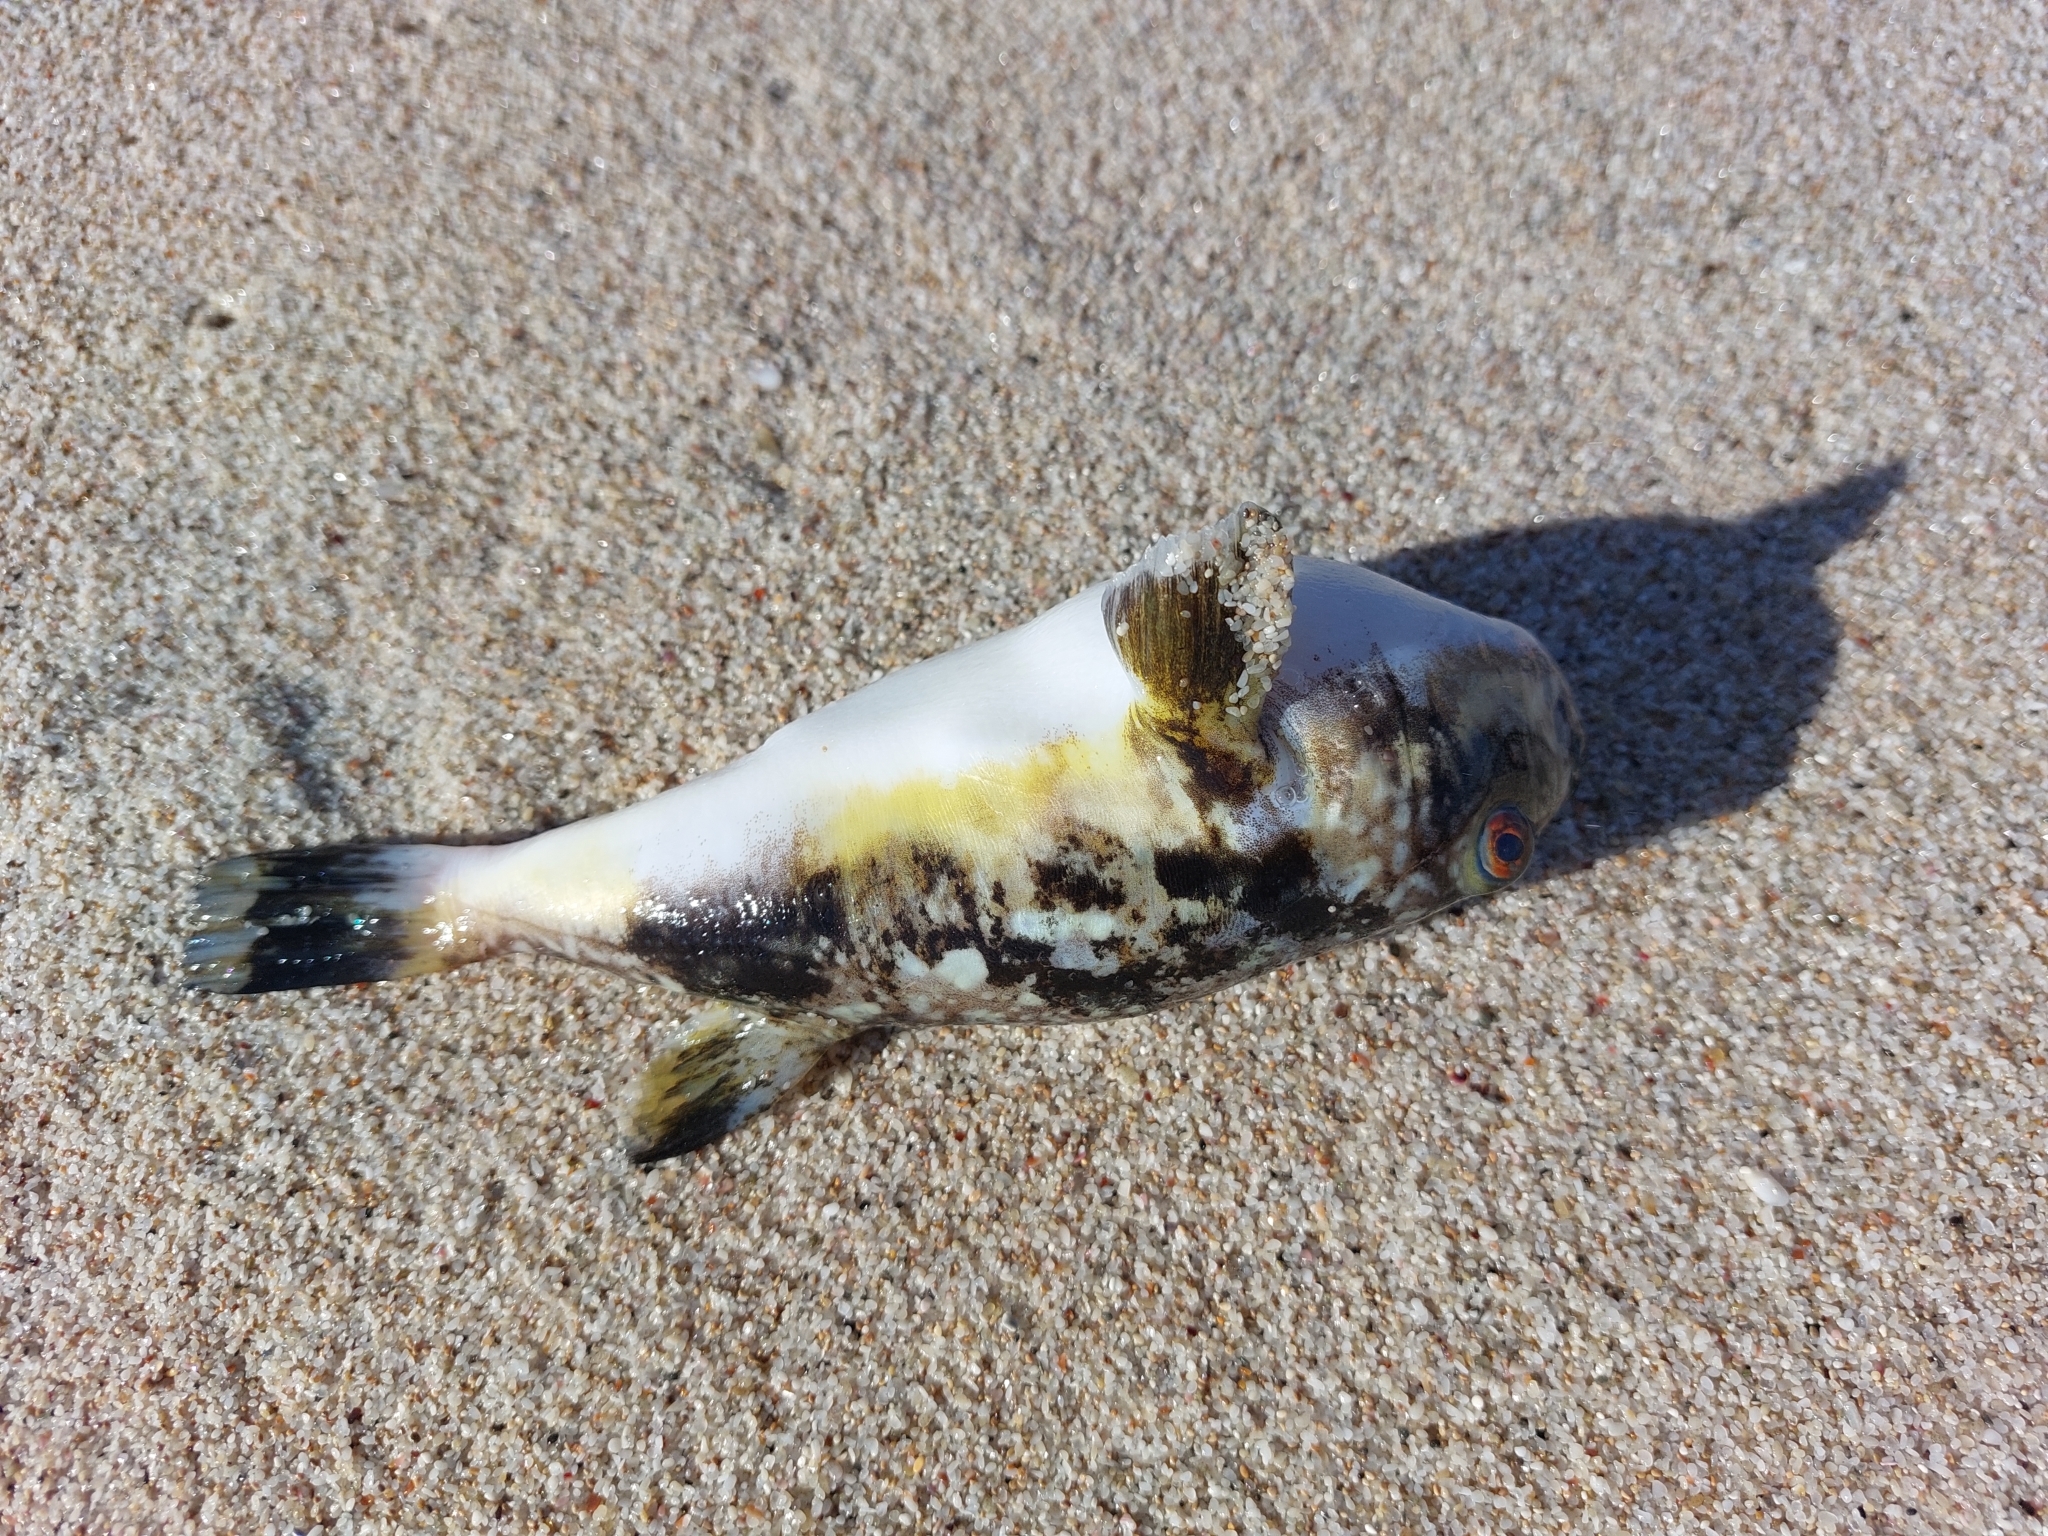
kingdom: Animalia
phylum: Chordata
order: Tetraodontiformes
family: Tetraodontidae
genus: Amblyrhynchote
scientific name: Amblyrhynchote honckenii
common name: Evileye blaasop
